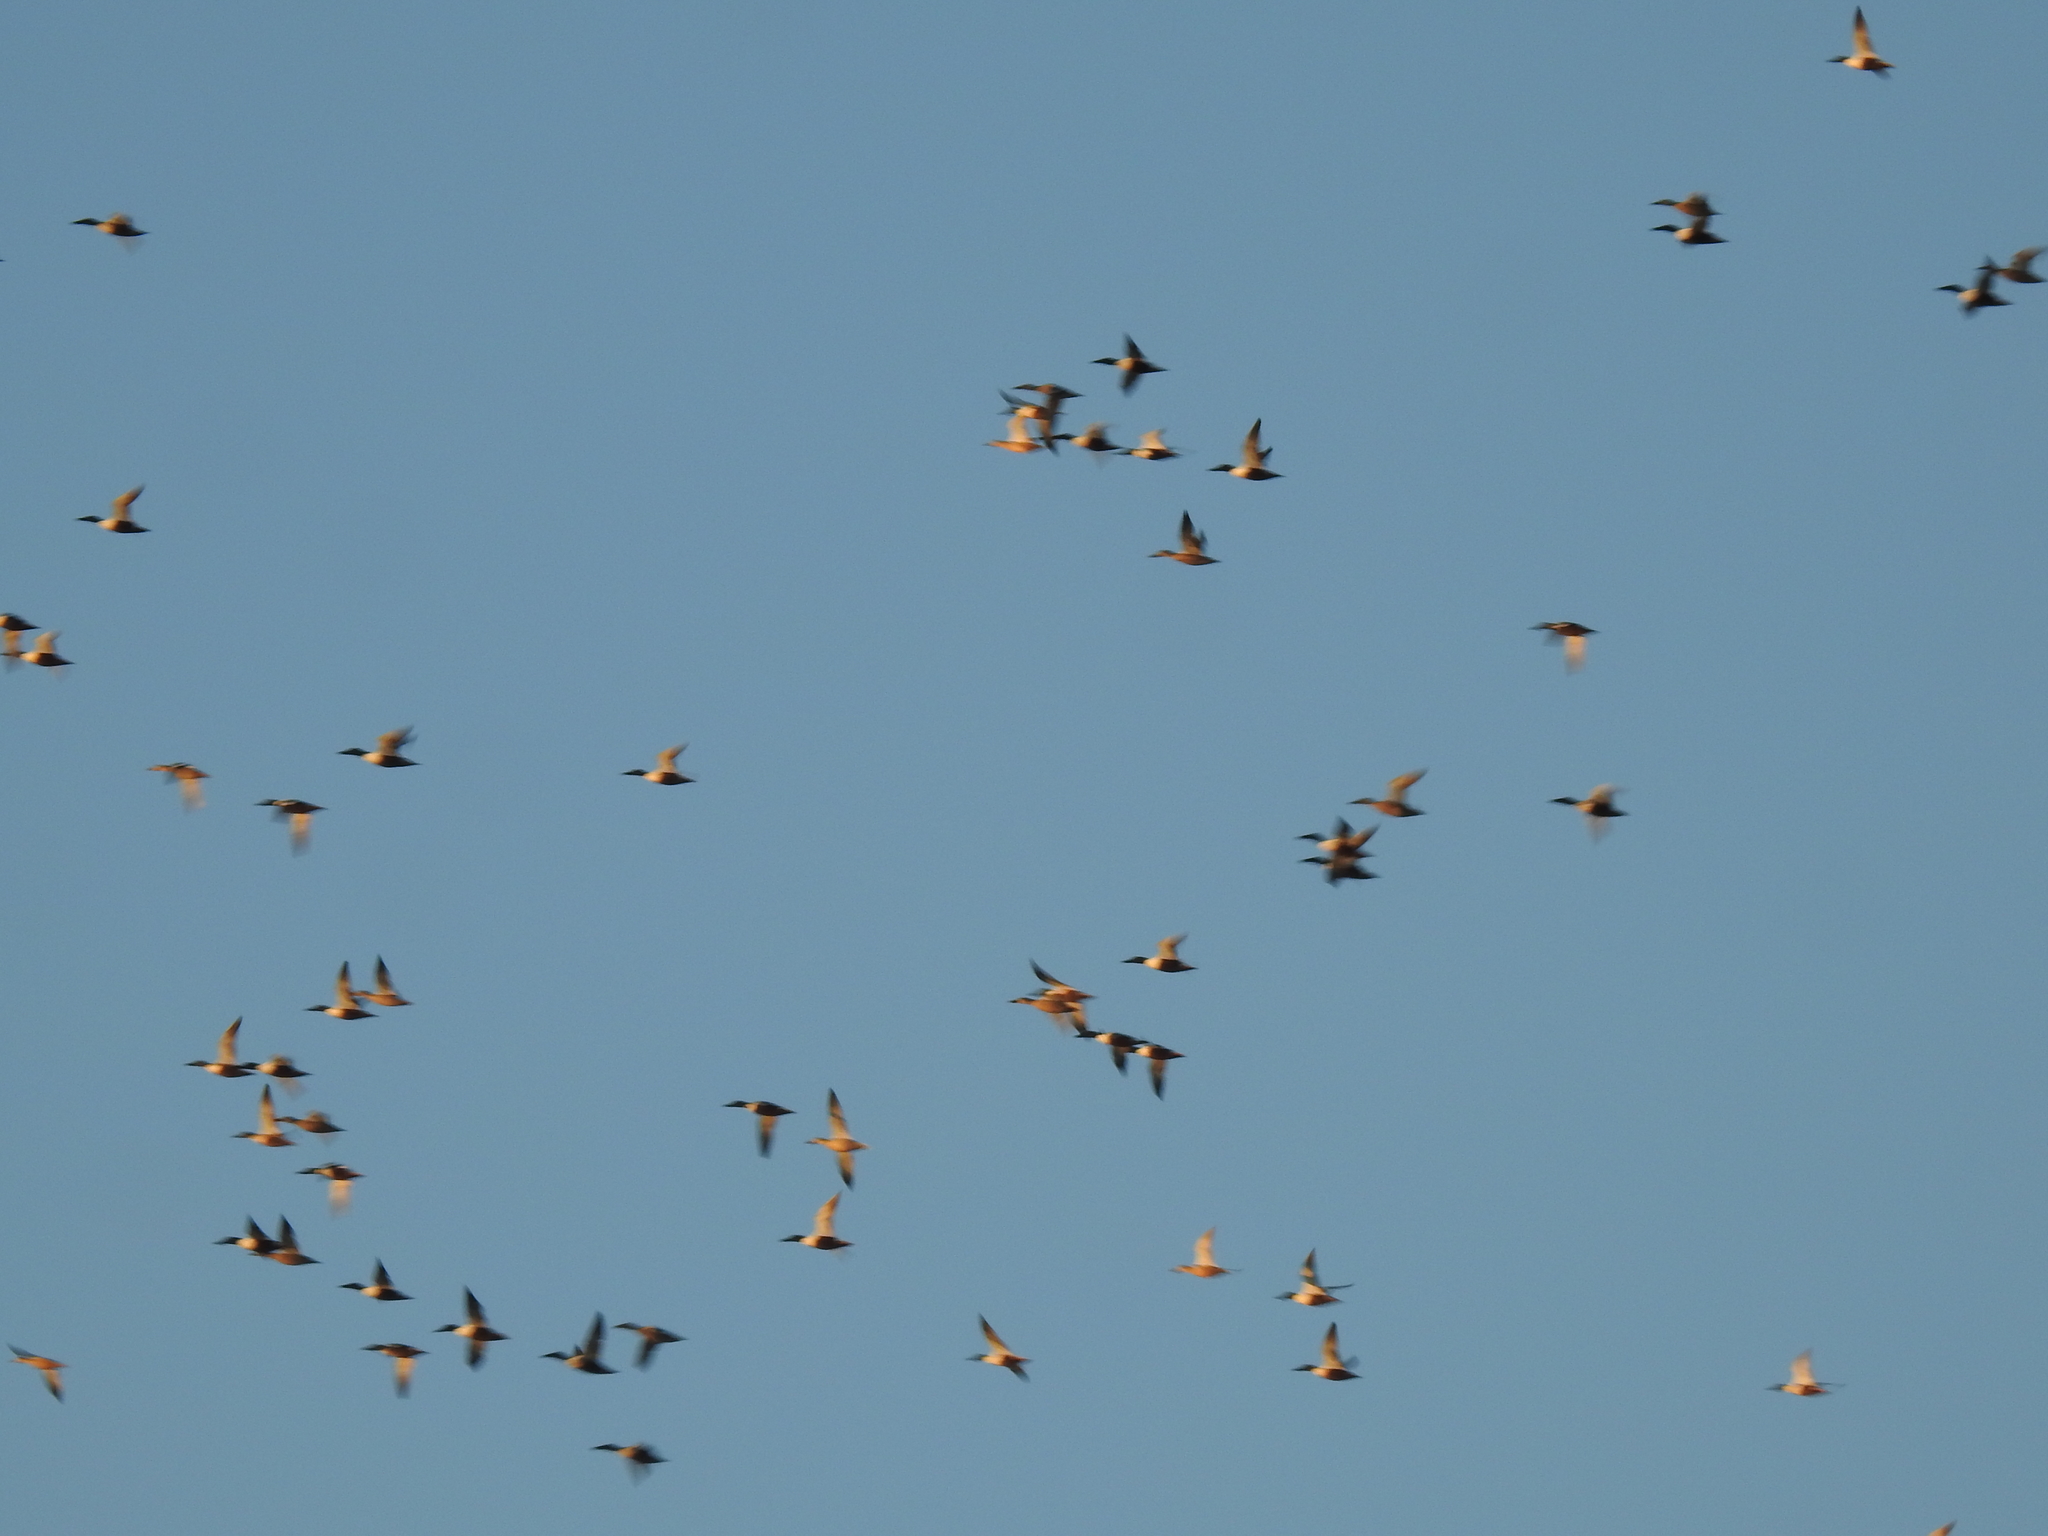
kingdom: Animalia
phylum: Chordata
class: Aves
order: Anseriformes
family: Anatidae
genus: Spatula
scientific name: Spatula clypeata
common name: Northern shoveler
